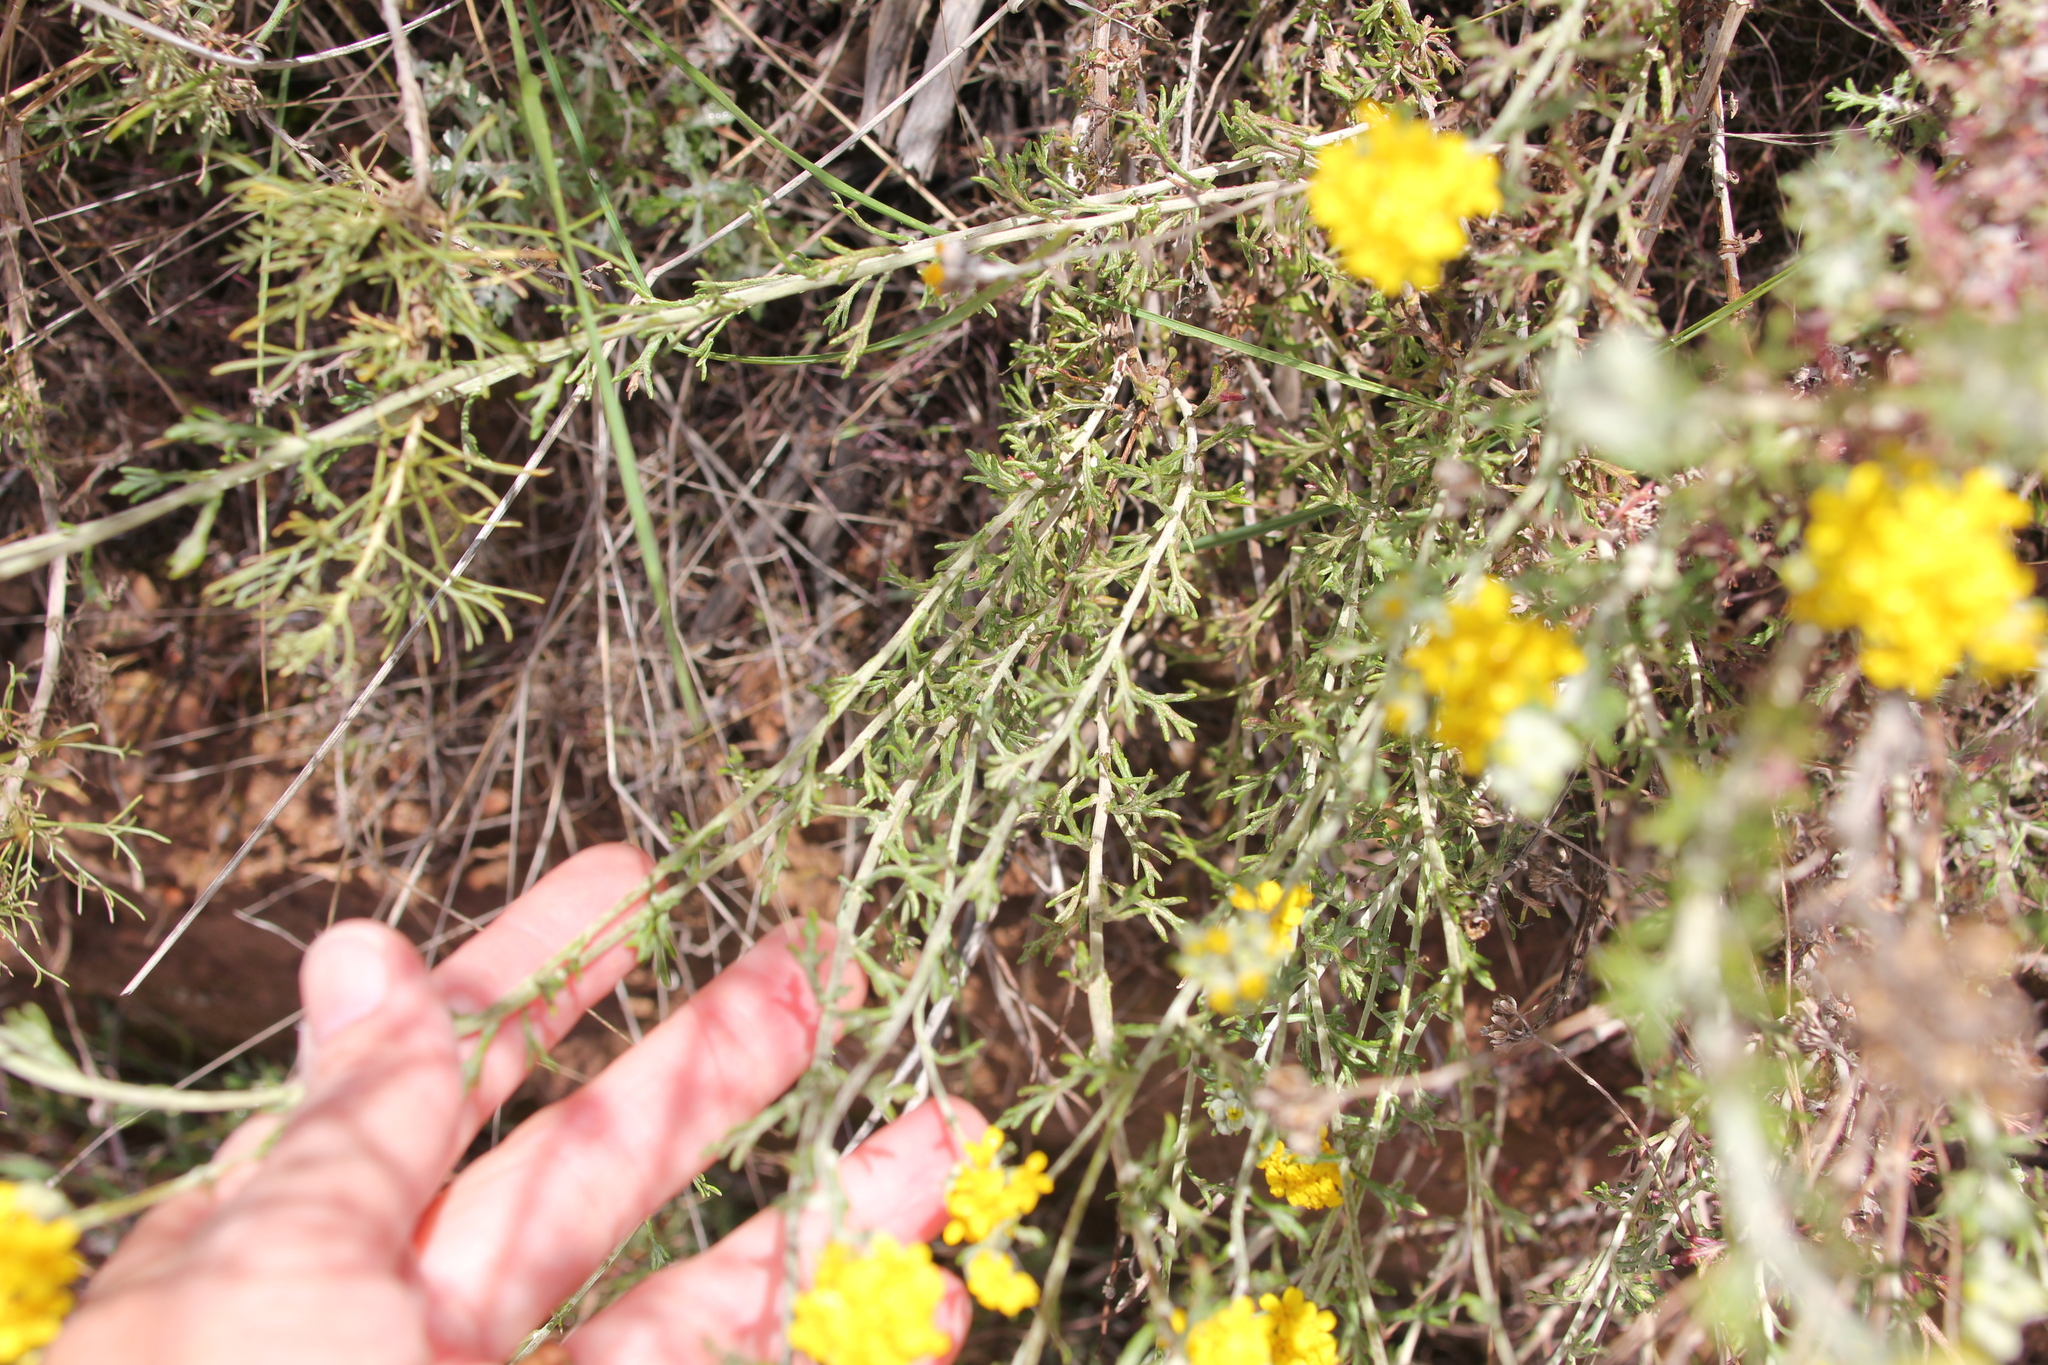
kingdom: Plantae
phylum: Tracheophyta
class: Magnoliopsida
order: Asterales
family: Asteraceae
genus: Eriophyllum
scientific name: Eriophyllum confertiflorum
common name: Golden-yarrow
